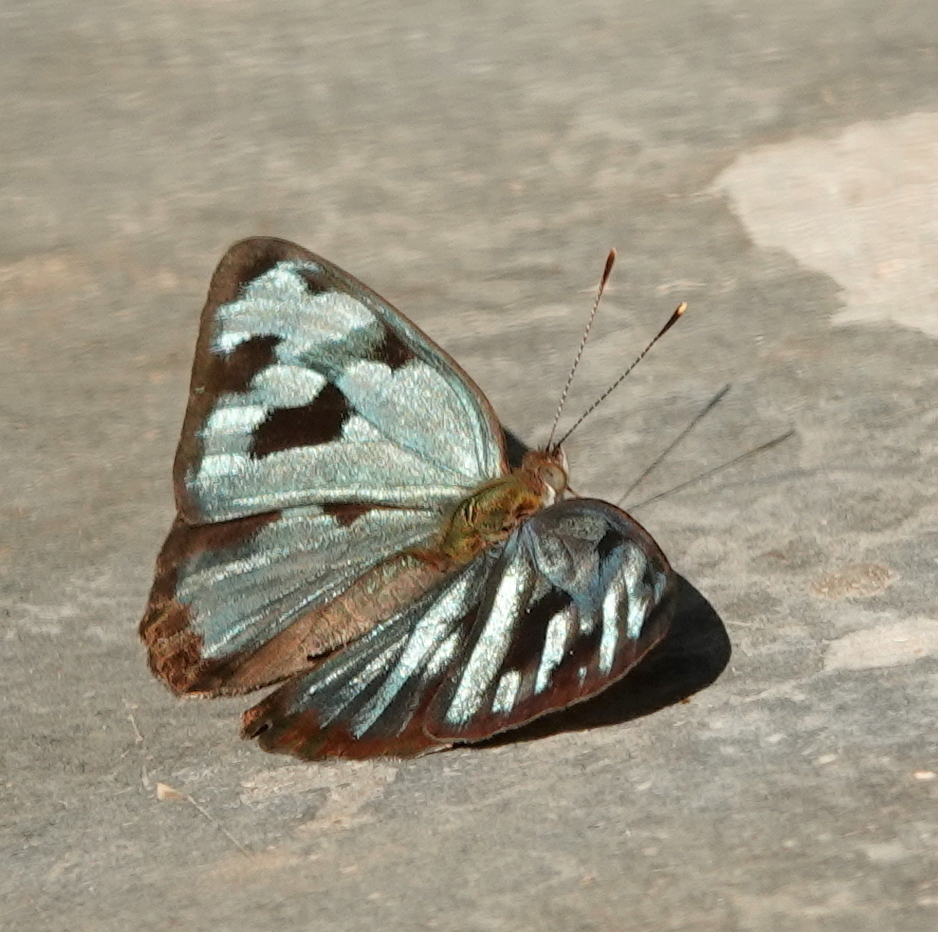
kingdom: Animalia
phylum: Arthropoda
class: Insecta
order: Lepidoptera
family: Nymphalidae
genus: Dynamine
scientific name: Dynamine mylitta
